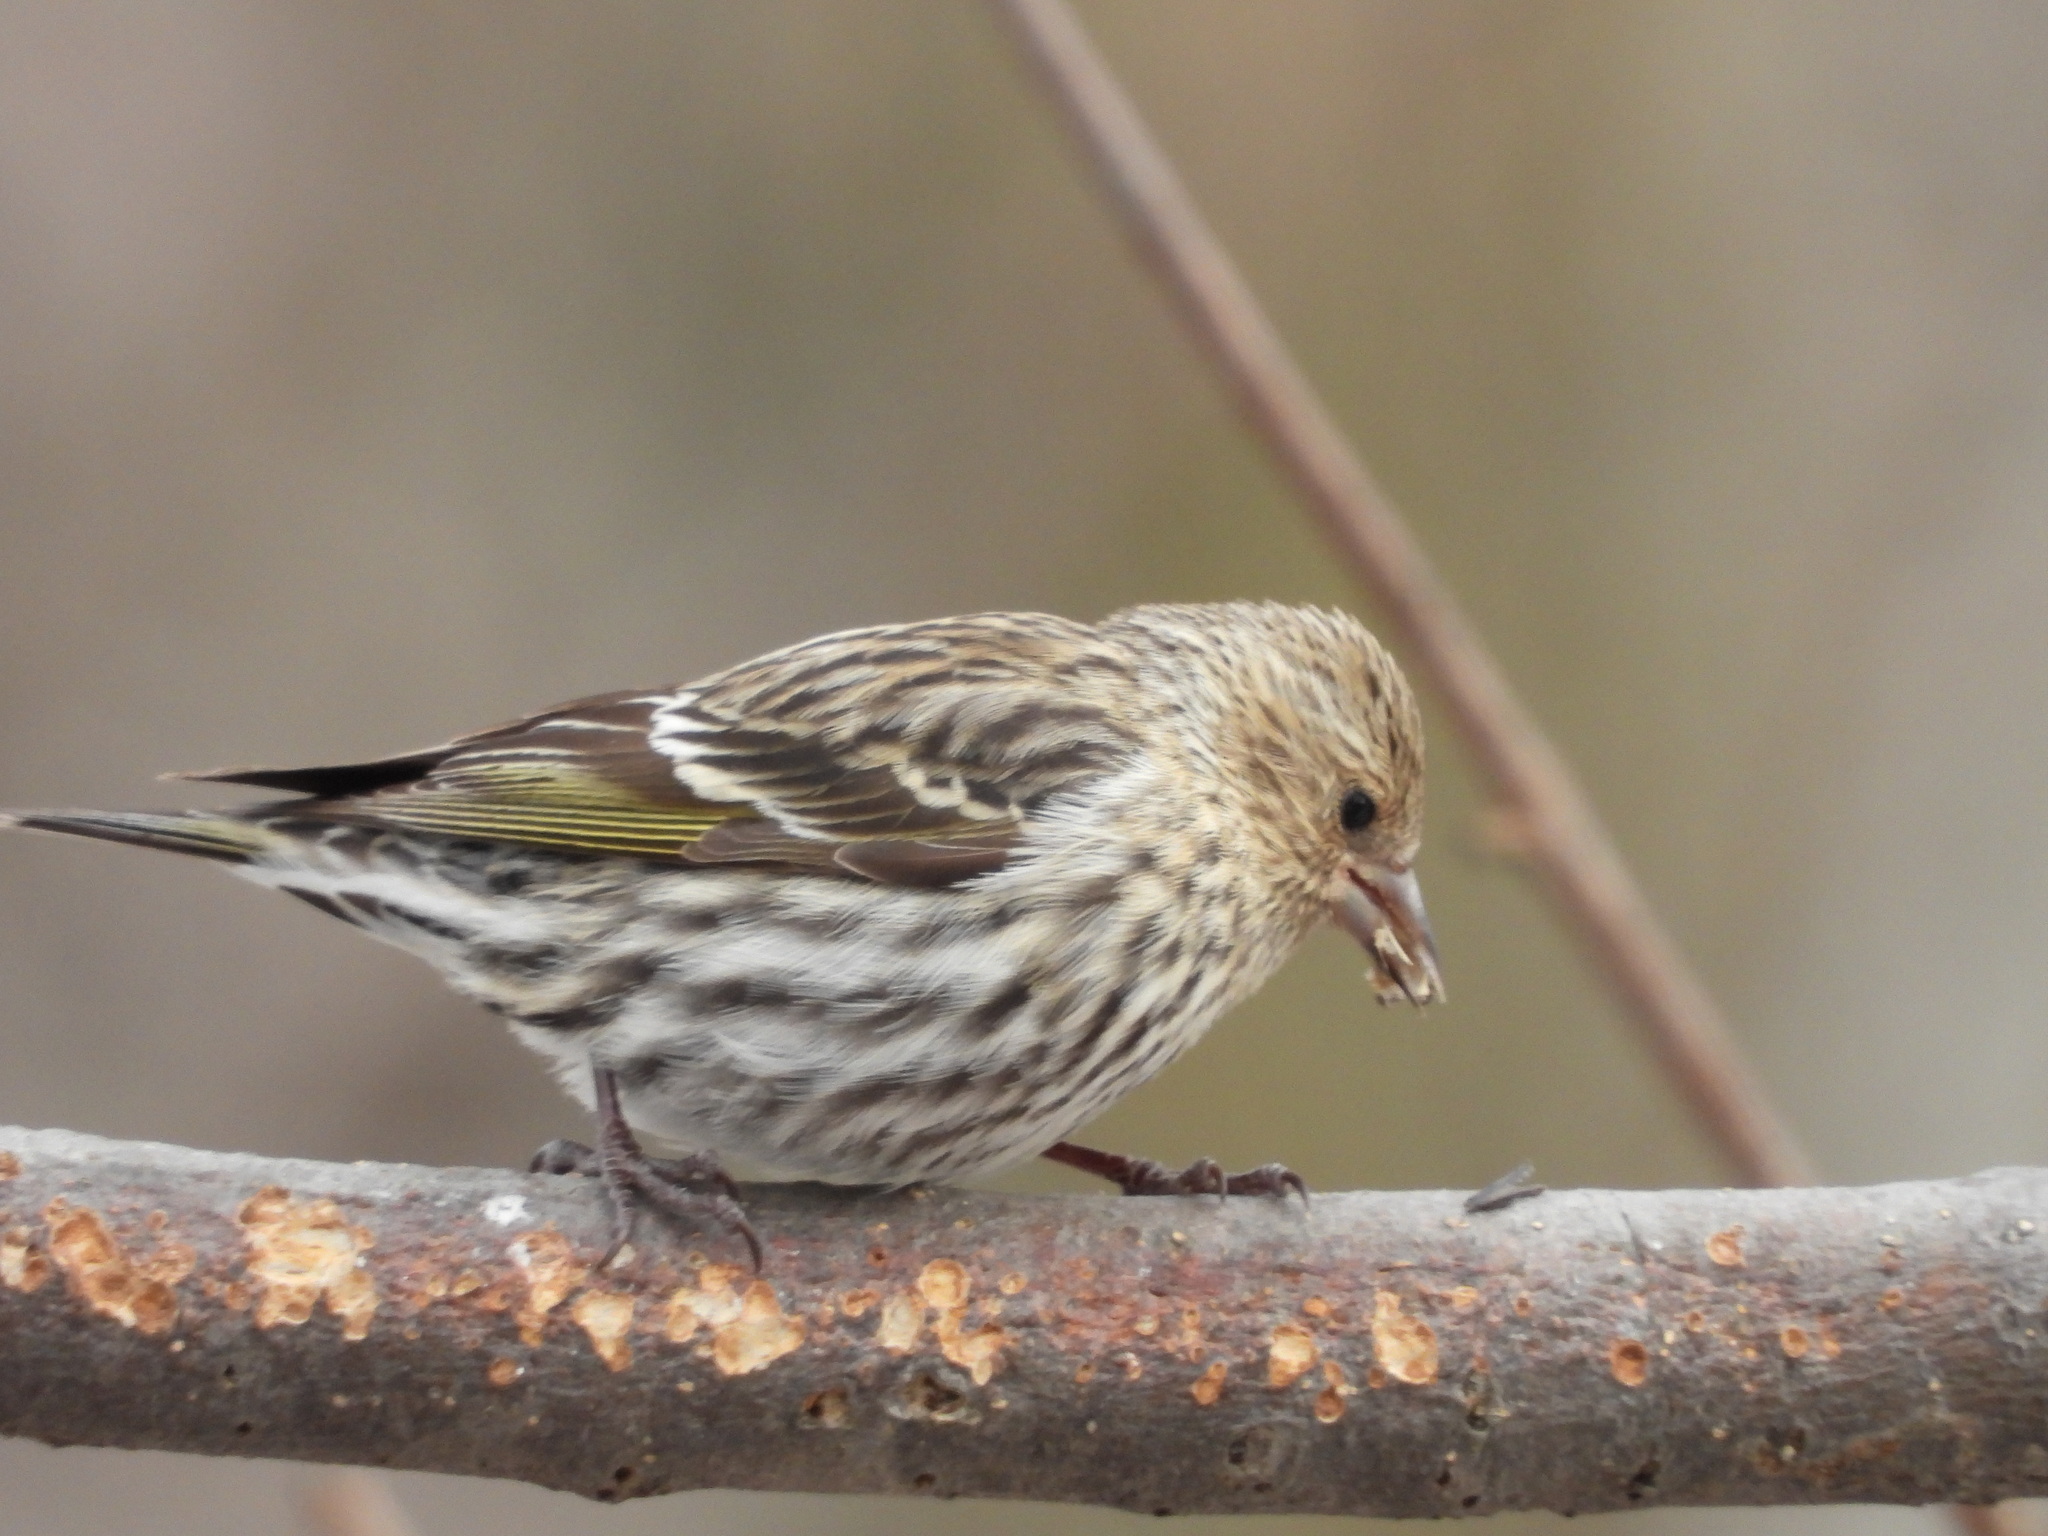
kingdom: Animalia
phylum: Chordata
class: Aves
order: Passeriformes
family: Fringillidae
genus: Spinus
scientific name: Spinus pinus
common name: Pine siskin
